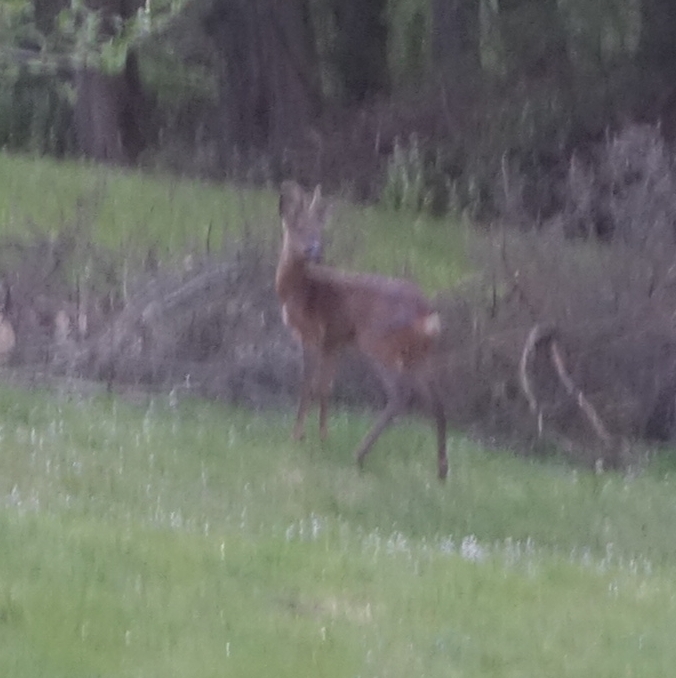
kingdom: Animalia
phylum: Chordata
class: Mammalia
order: Artiodactyla
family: Cervidae
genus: Capreolus
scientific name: Capreolus capreolus
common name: Western roe deer
